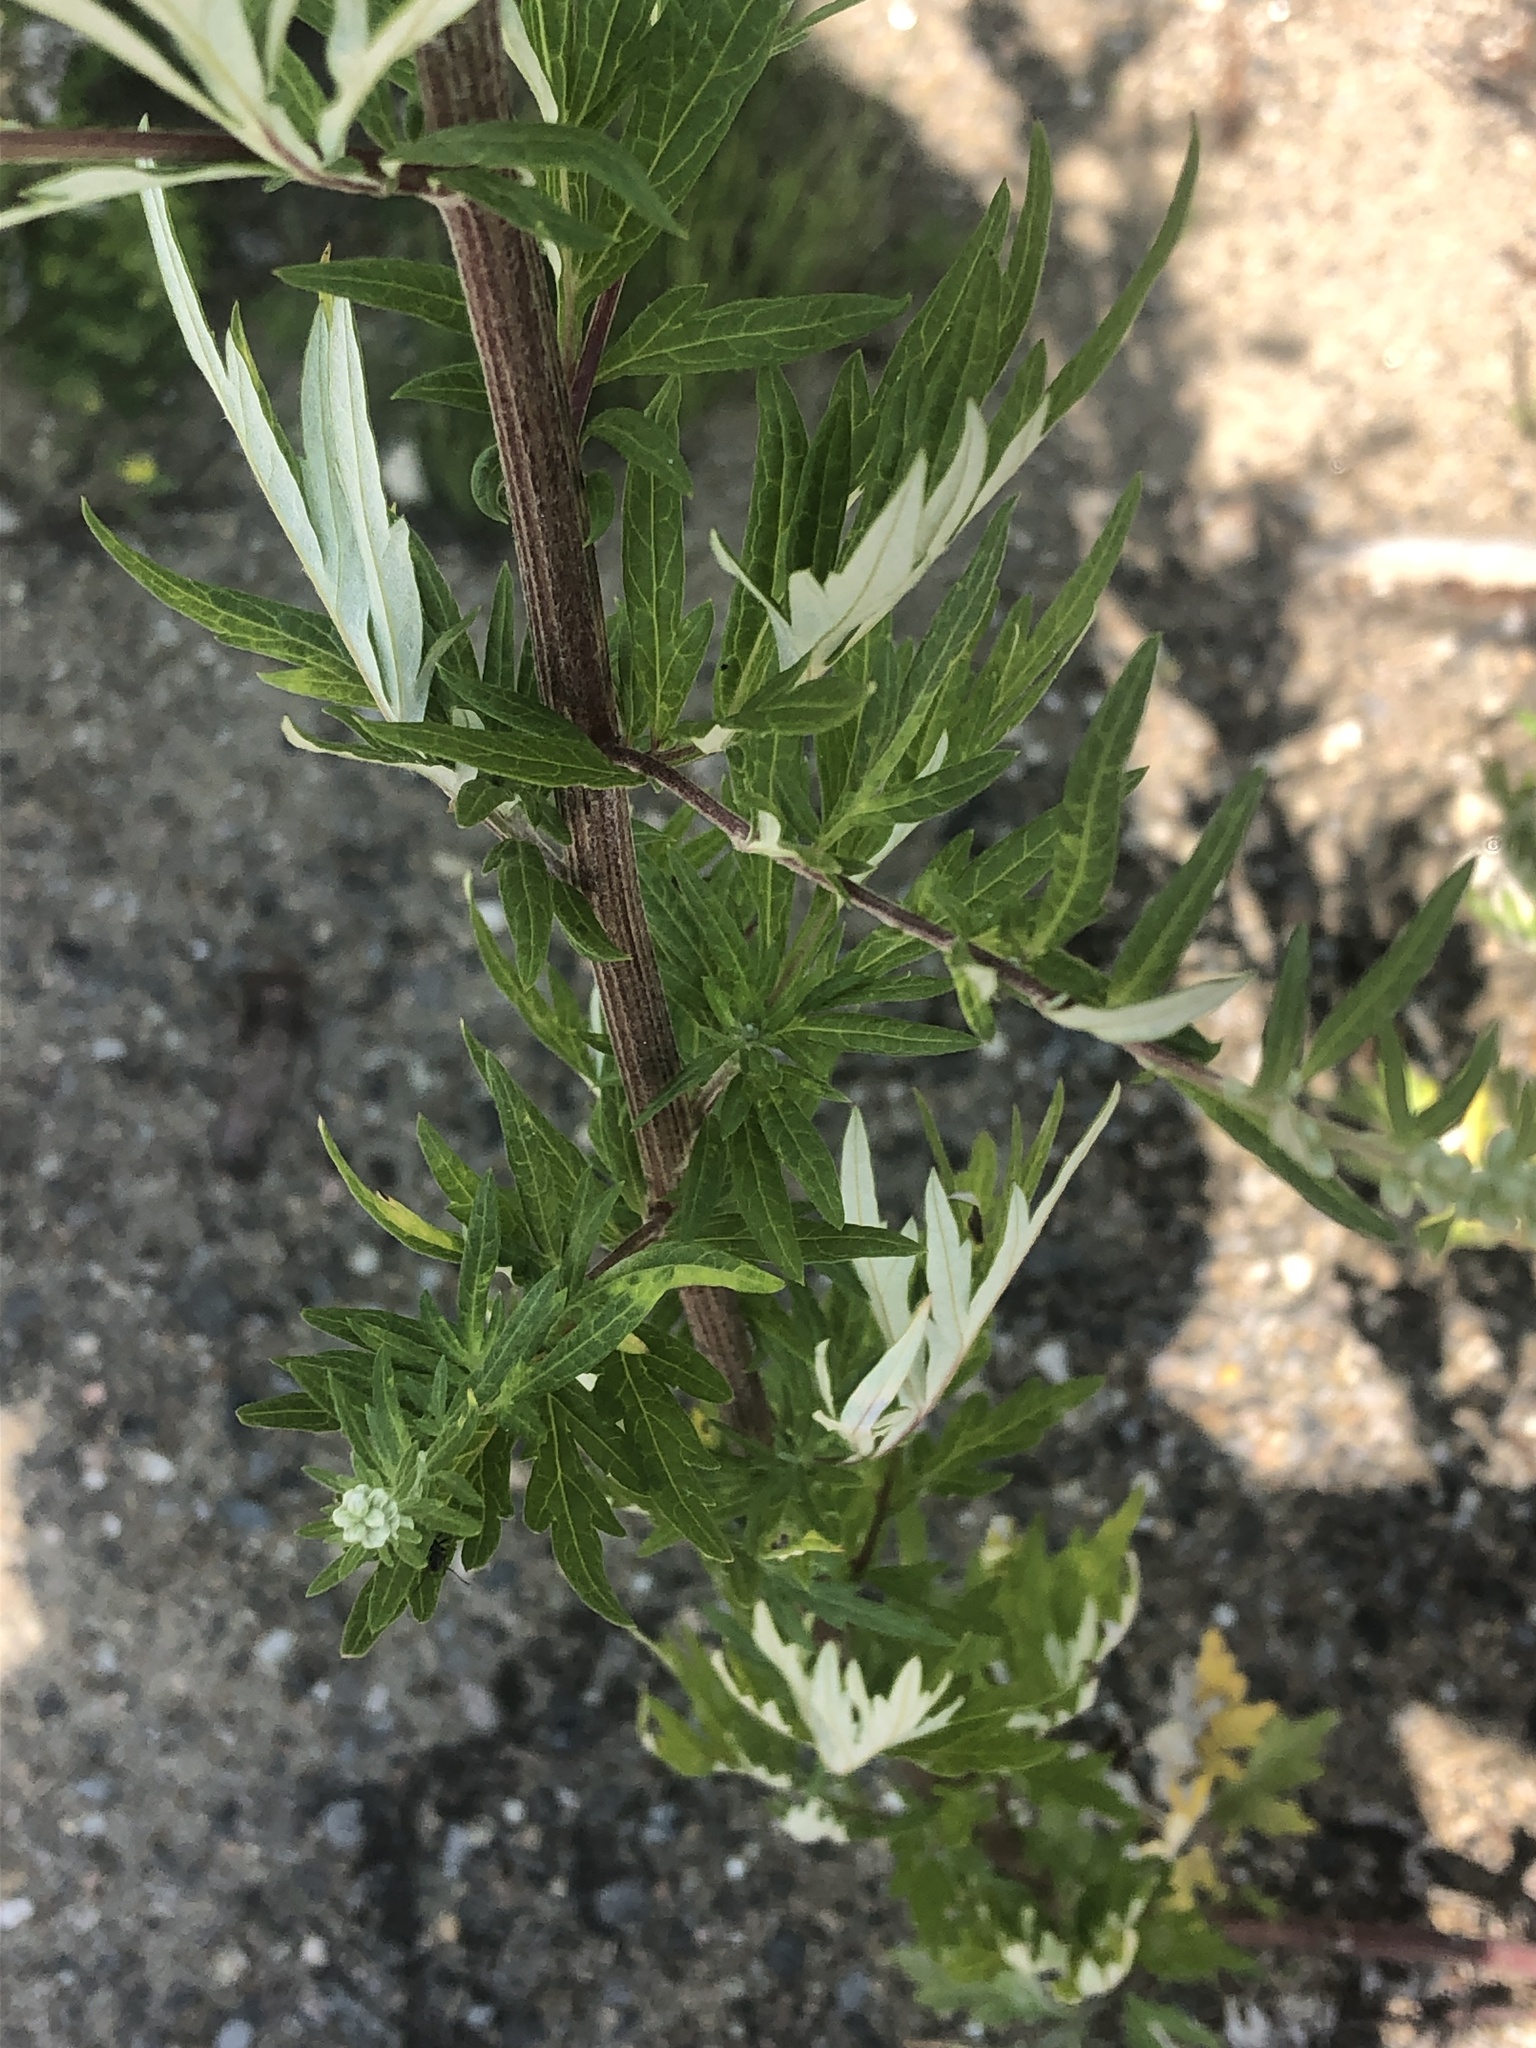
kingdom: Plantae
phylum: Tracheophyta
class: Magnoliopsida
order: Asterales
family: Asteraceae
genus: Artemisia
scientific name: Artemisia vulgaris
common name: Mugwort
